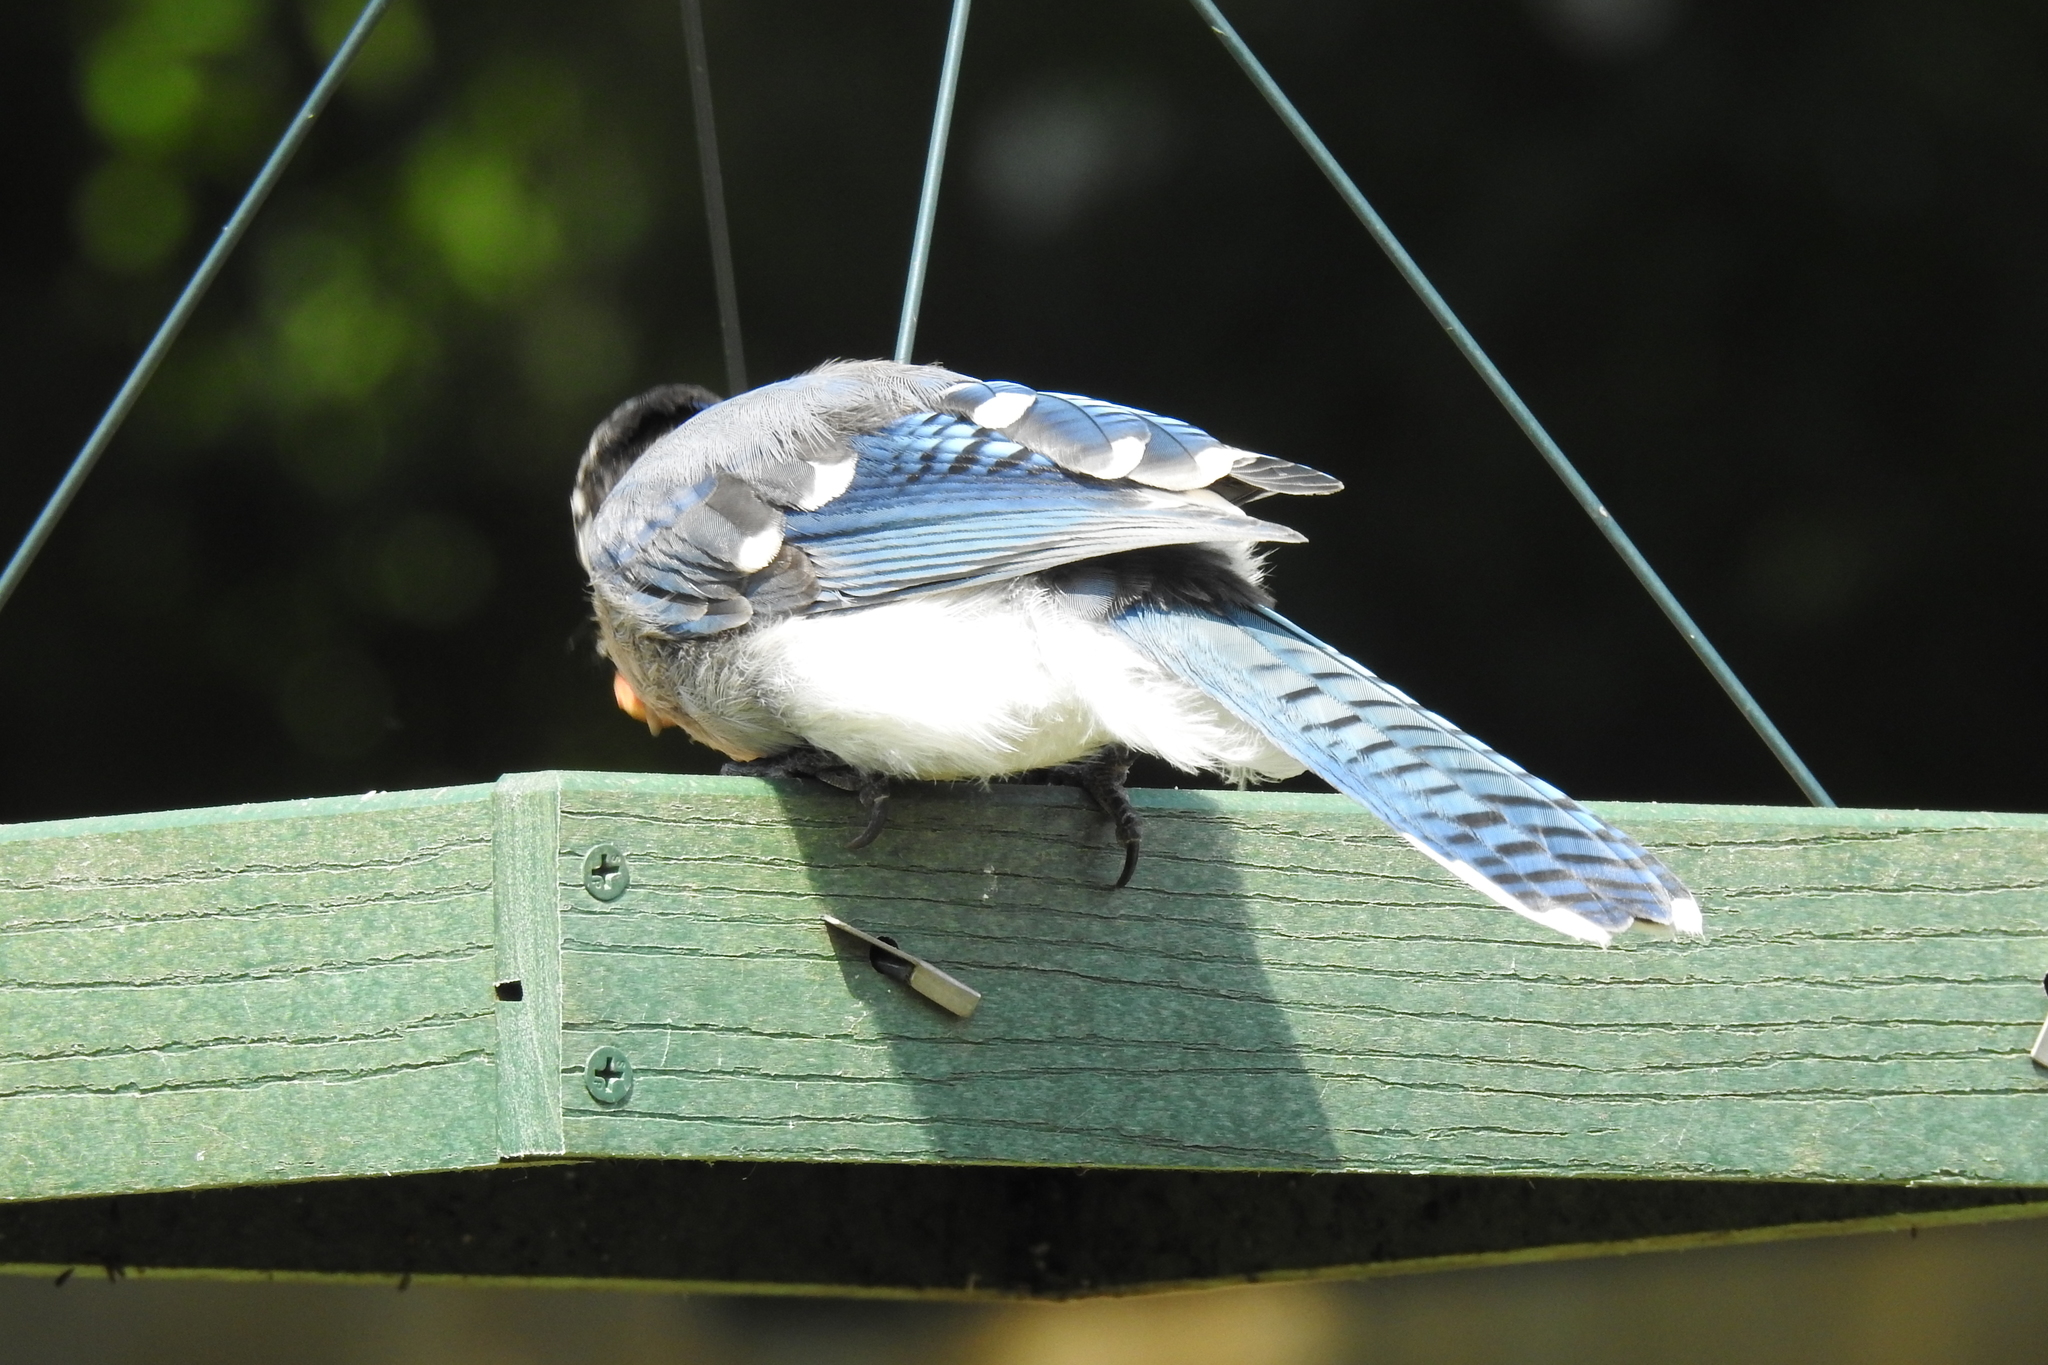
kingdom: Animalia
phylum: Chordata
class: Aves
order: Passeriformes
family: Corvidae
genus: Cyanocitta
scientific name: Cyanocitta cristata
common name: Blue jay
